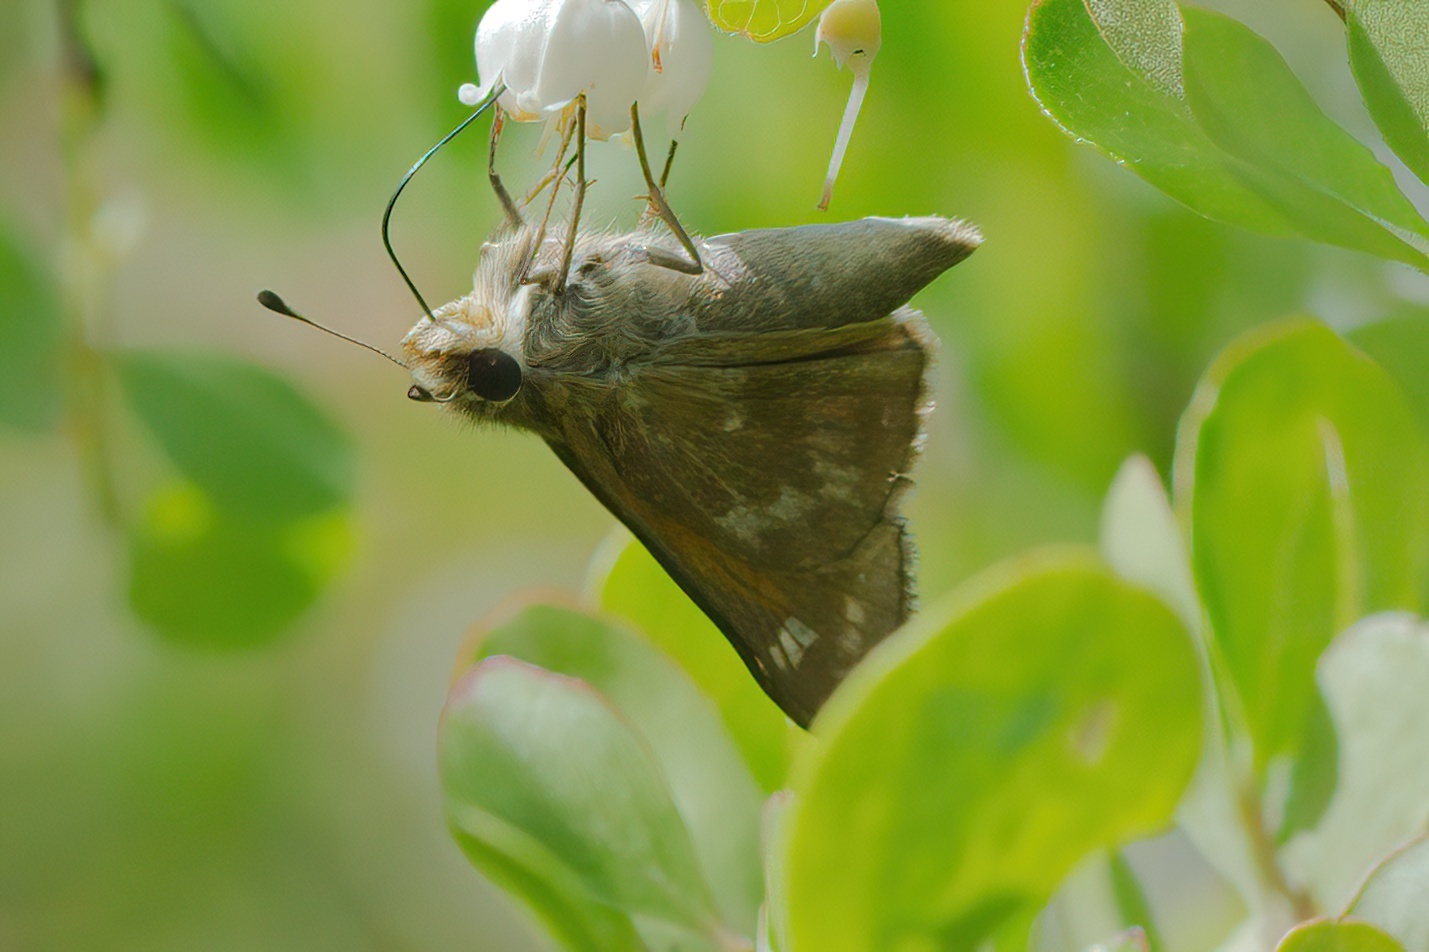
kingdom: Animalia
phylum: Arthropoda
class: Insecta
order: Lepidoptera
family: Hesperiidae
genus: Atalopedes
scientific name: Atalopedes
